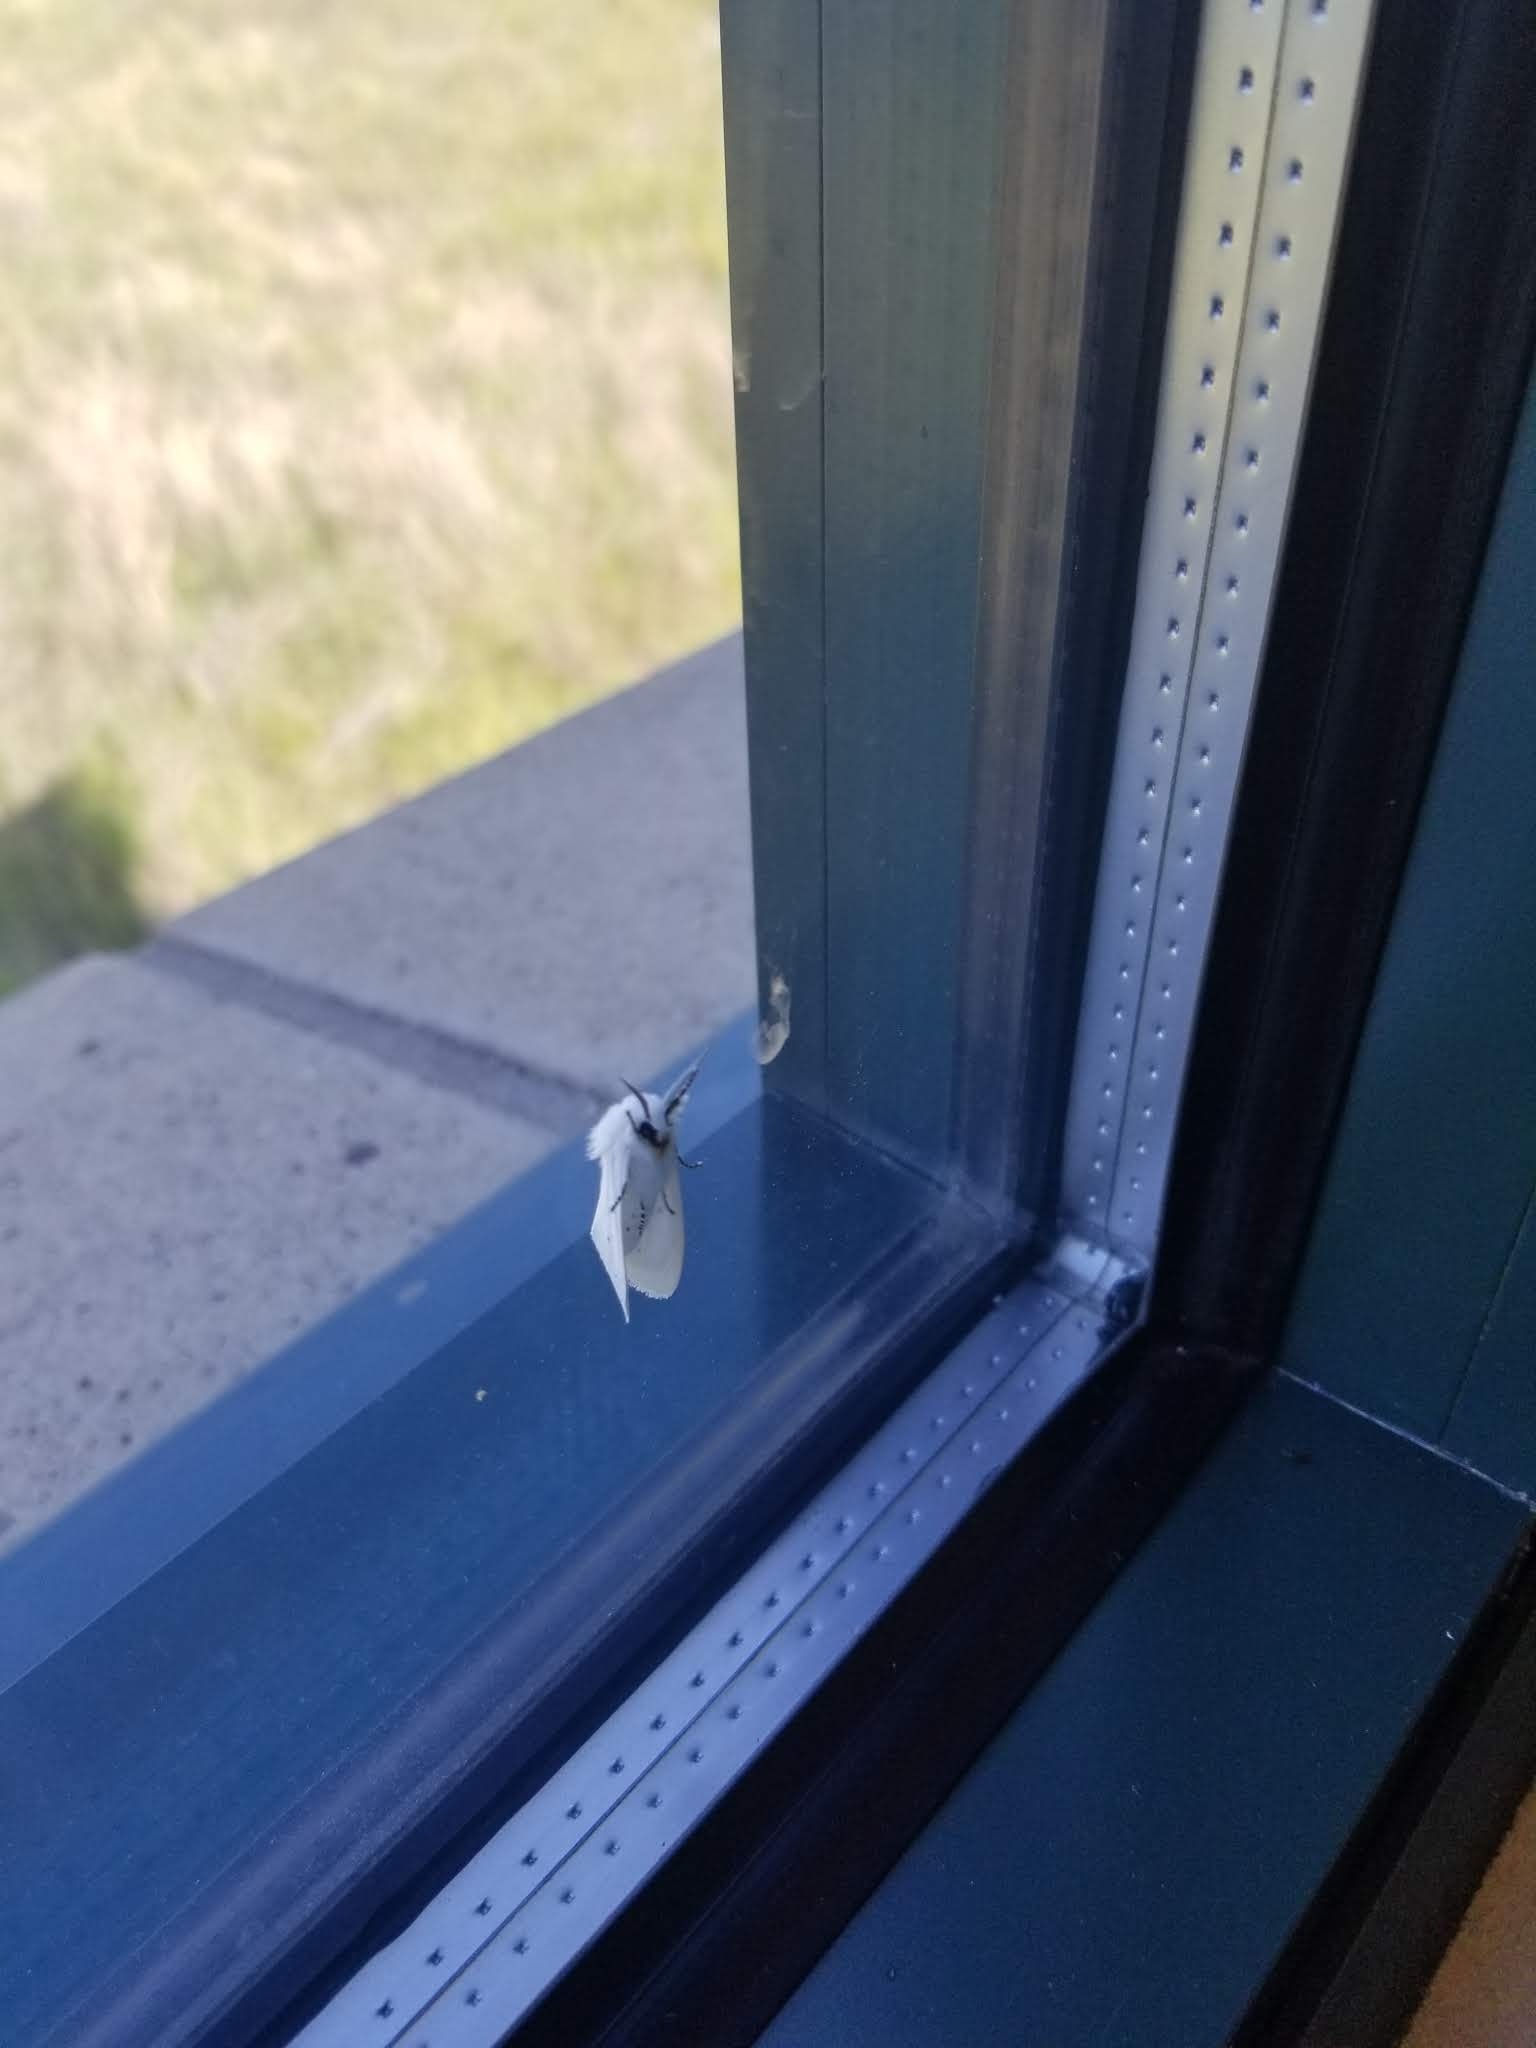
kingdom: Animalia
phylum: Arthropoda
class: Insecta
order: Lepidoptera
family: Erebidae
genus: Spilosoma
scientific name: Spilosoma virginica
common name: Virginia tiger moth
